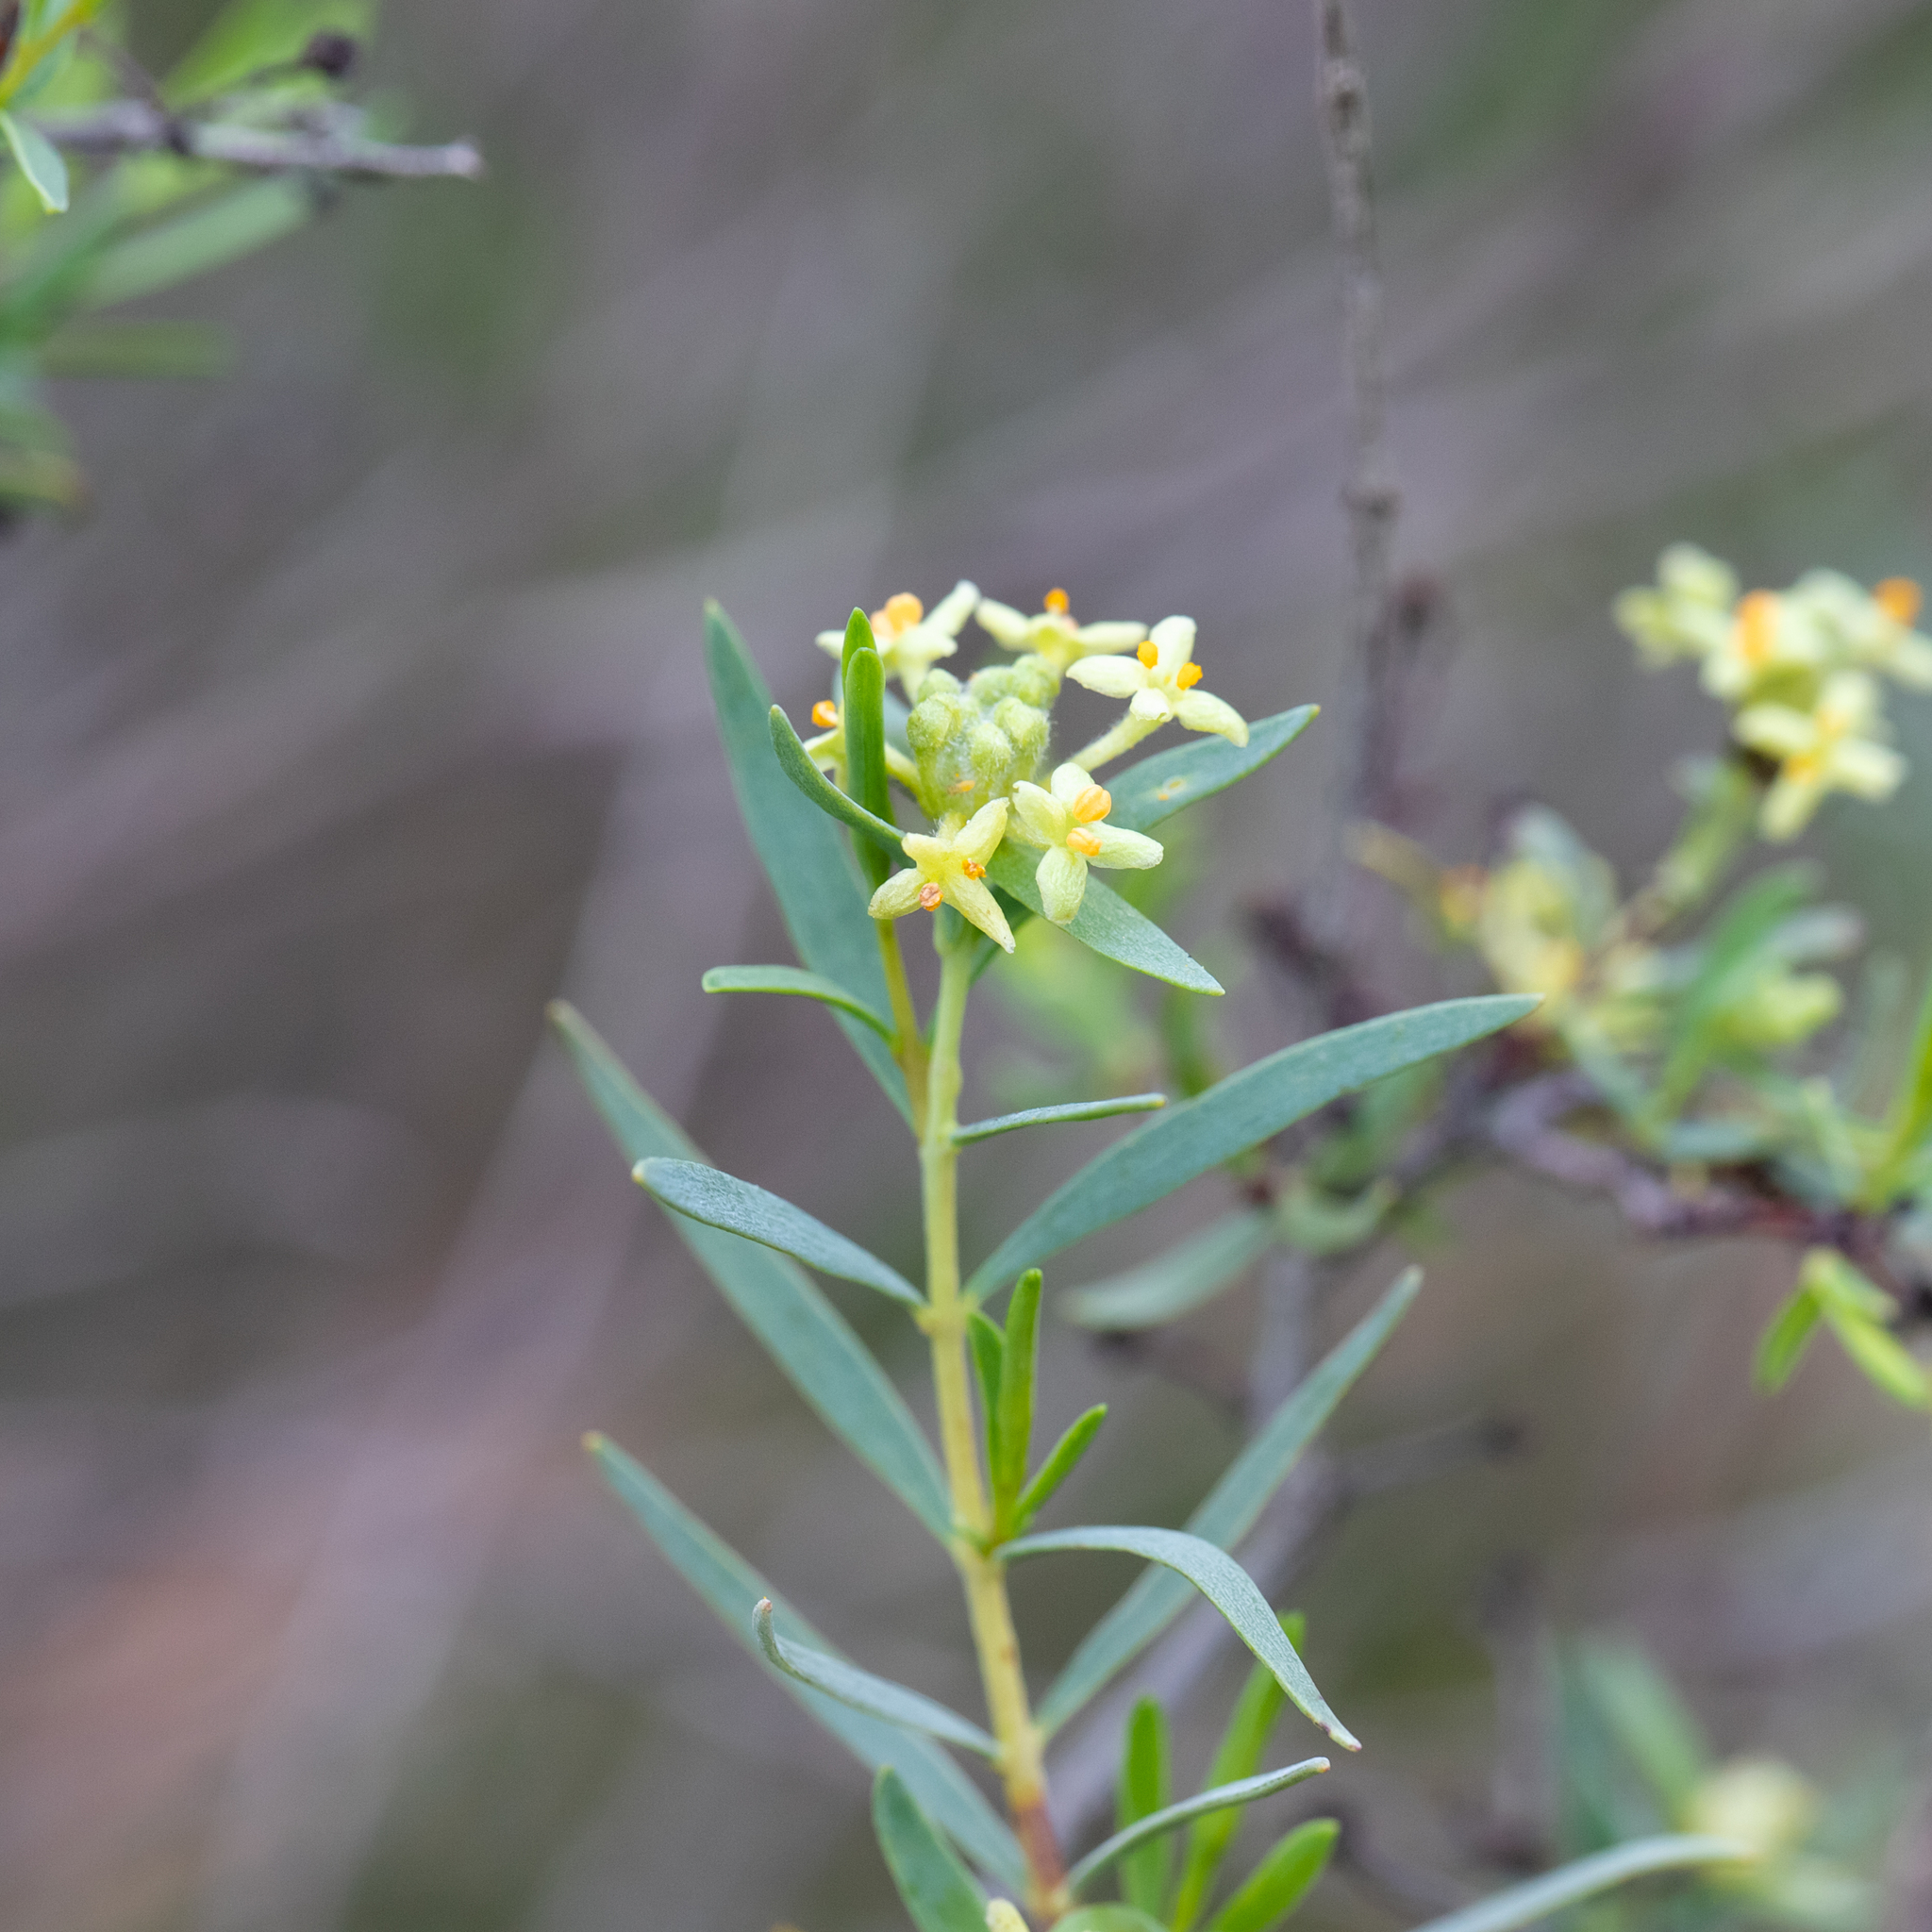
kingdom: Plantae
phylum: Tracheophyta
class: Magnoliopsida
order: Malvales
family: Thymelaeaceae
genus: Pimelea
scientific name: Pimelea microcephala
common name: Mallee riceflower
